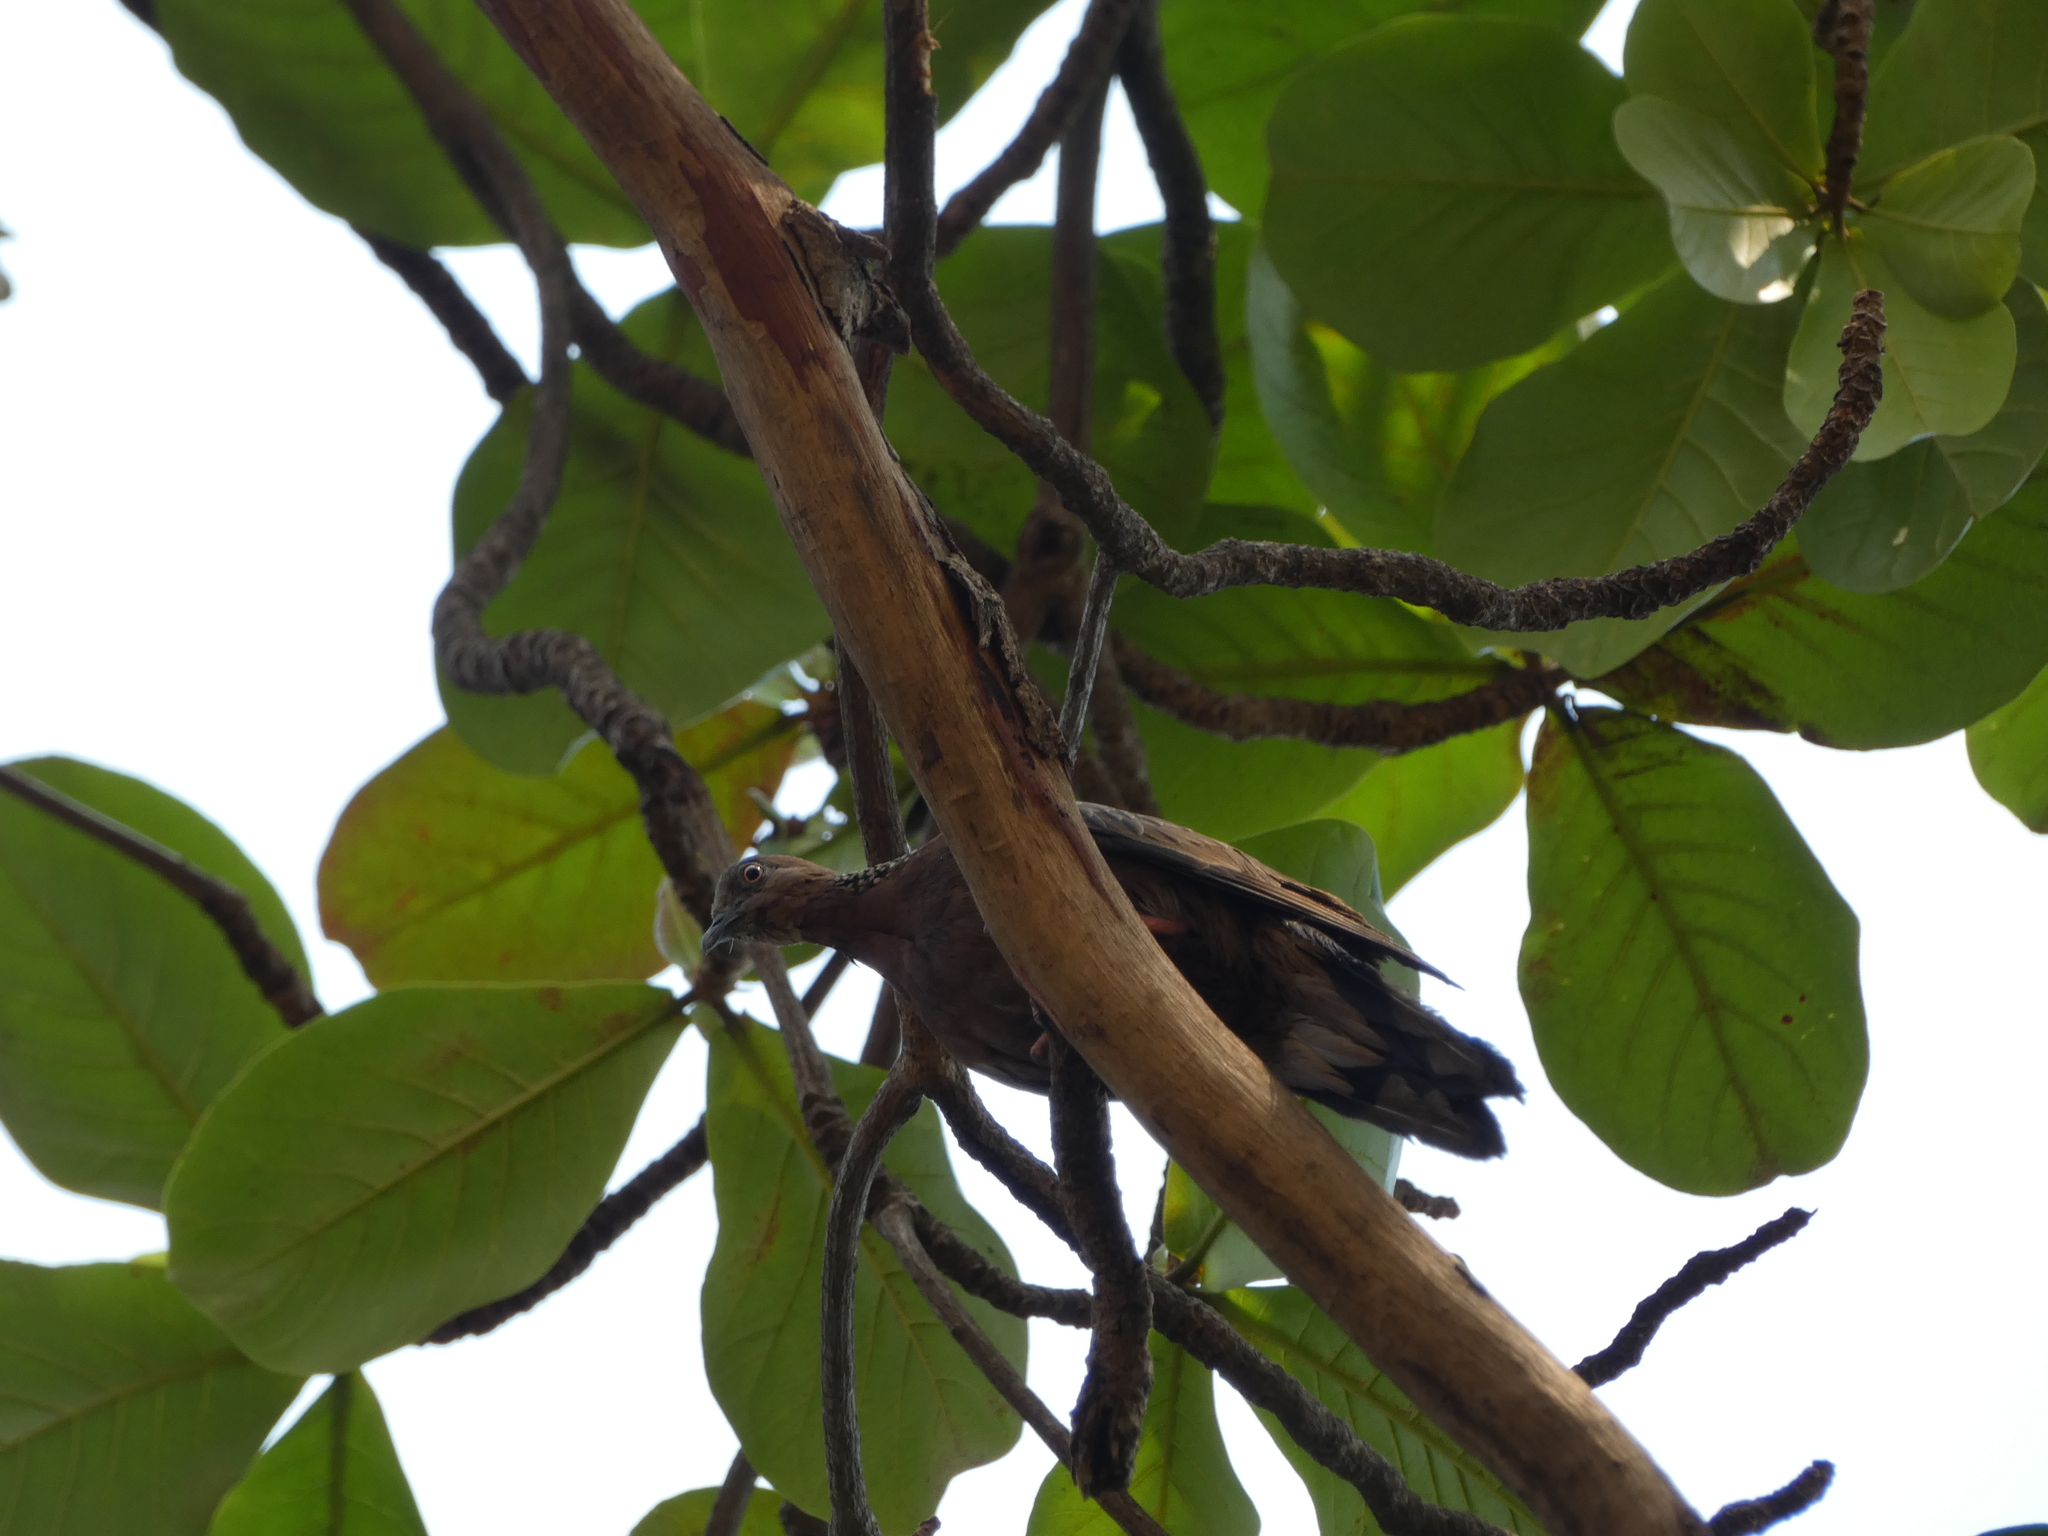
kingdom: Animalia
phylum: Chordata
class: Aves
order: Columbiformes
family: Columbidae
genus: Spilopelia
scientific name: Spilopelia chinensis
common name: Spotted dove
